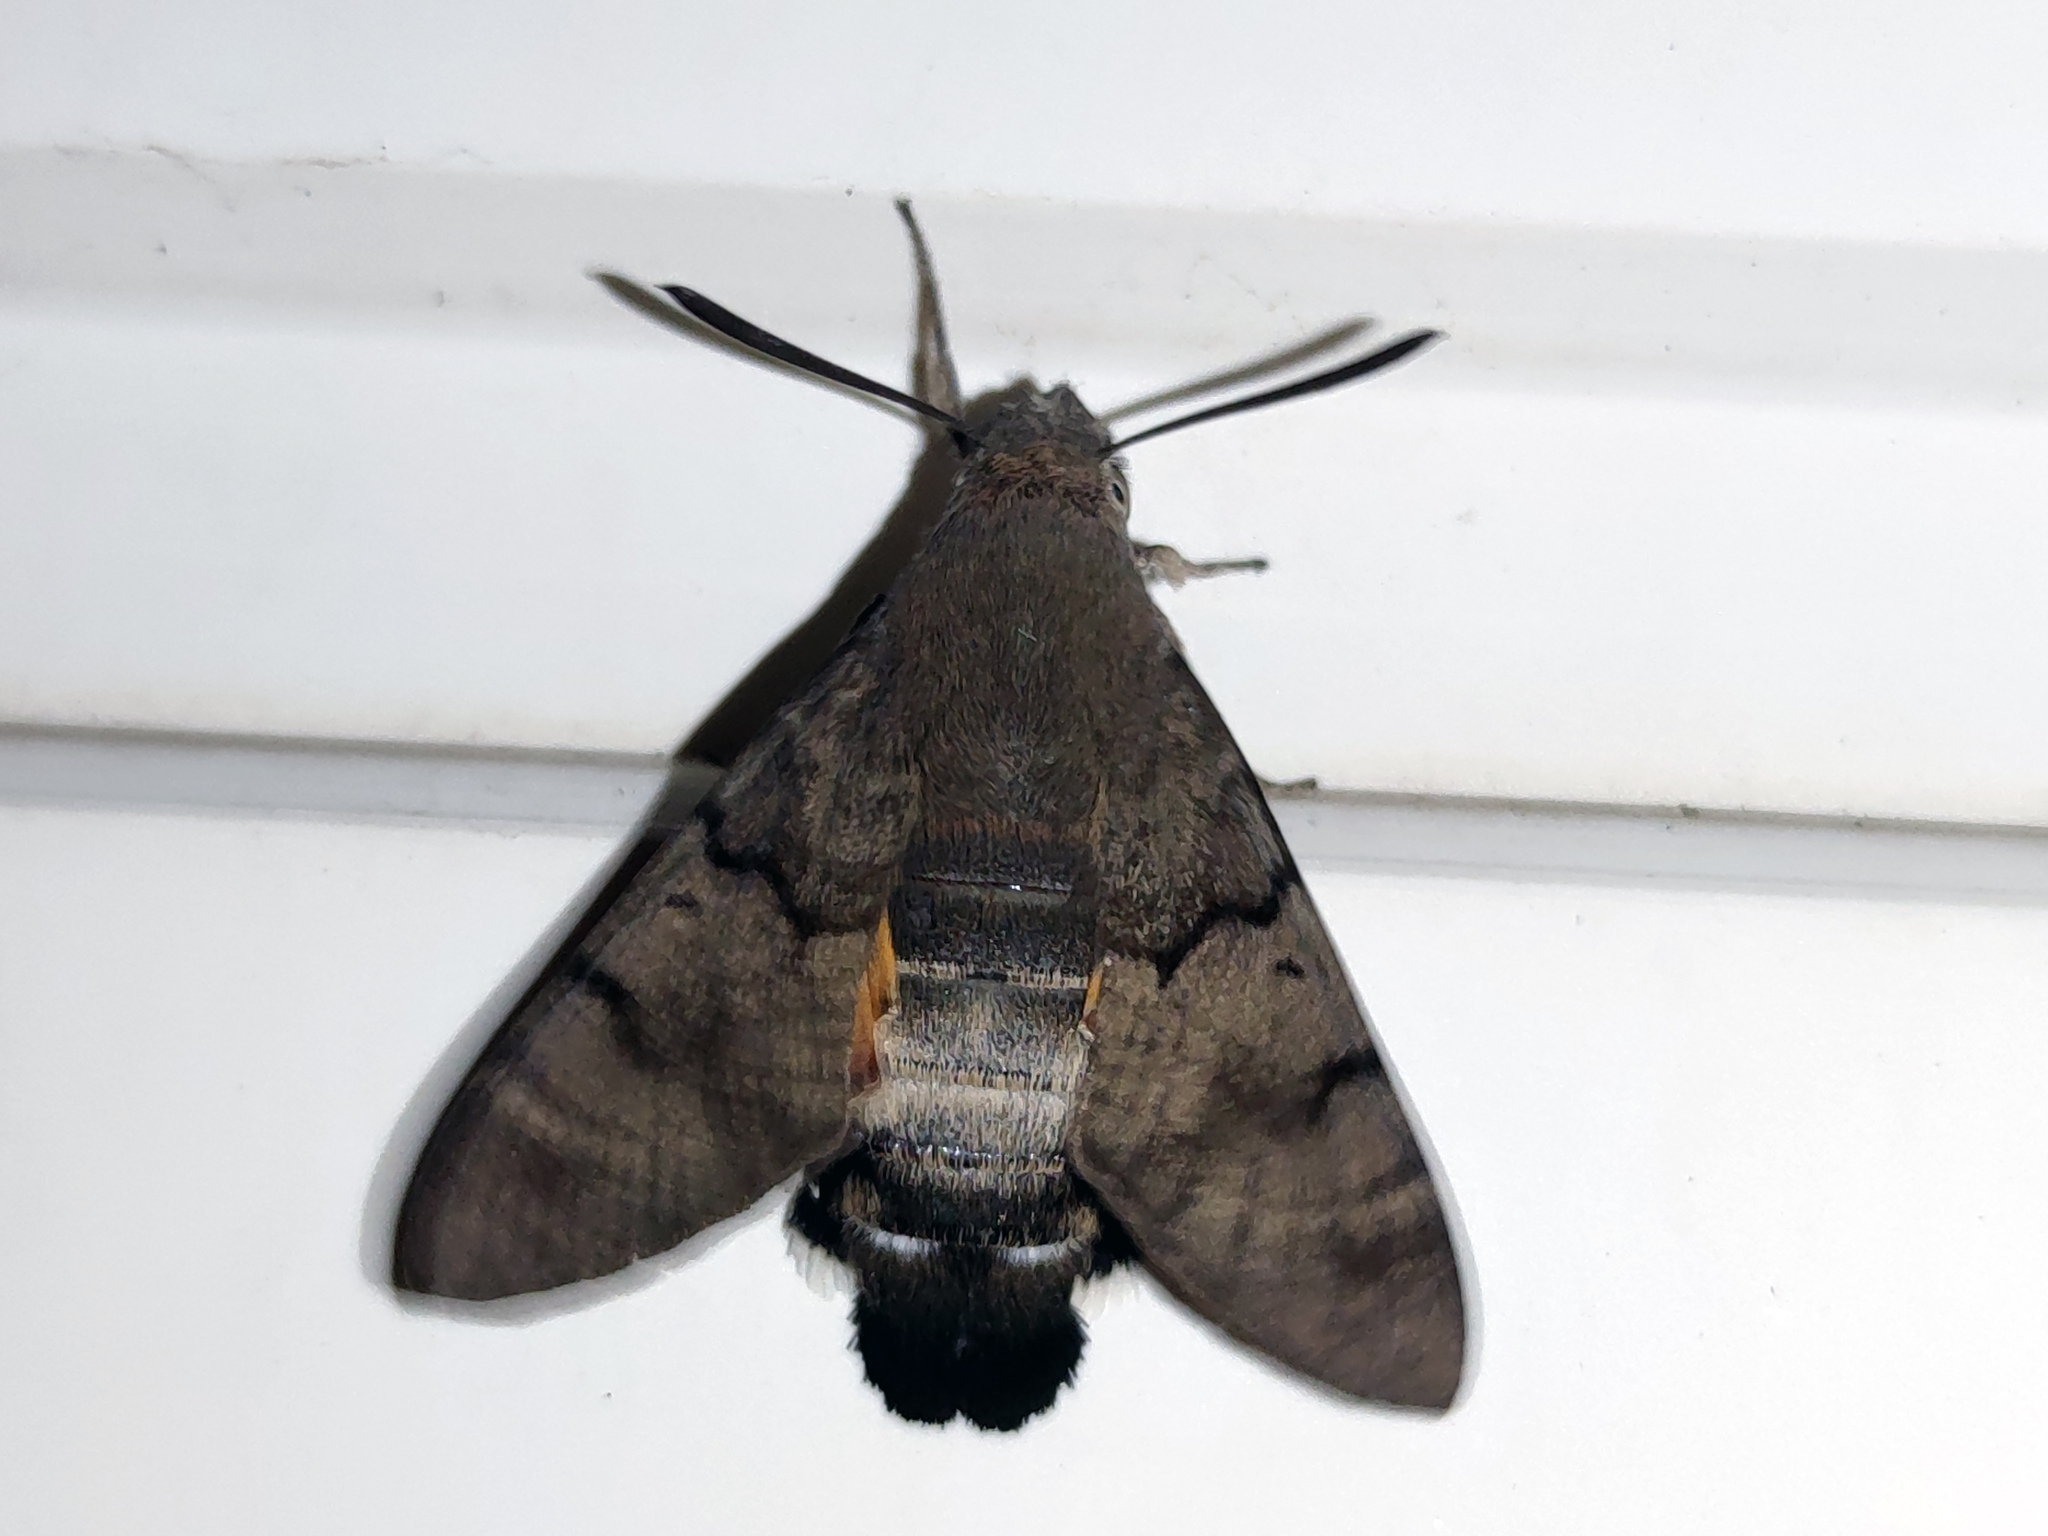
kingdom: Animalia
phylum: Arthropoda
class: Insecta
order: Lepidoptera
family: Sphingidae
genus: Macroglossum
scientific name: Macroglossum stellatarum
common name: Humming-bird hawk-moth
